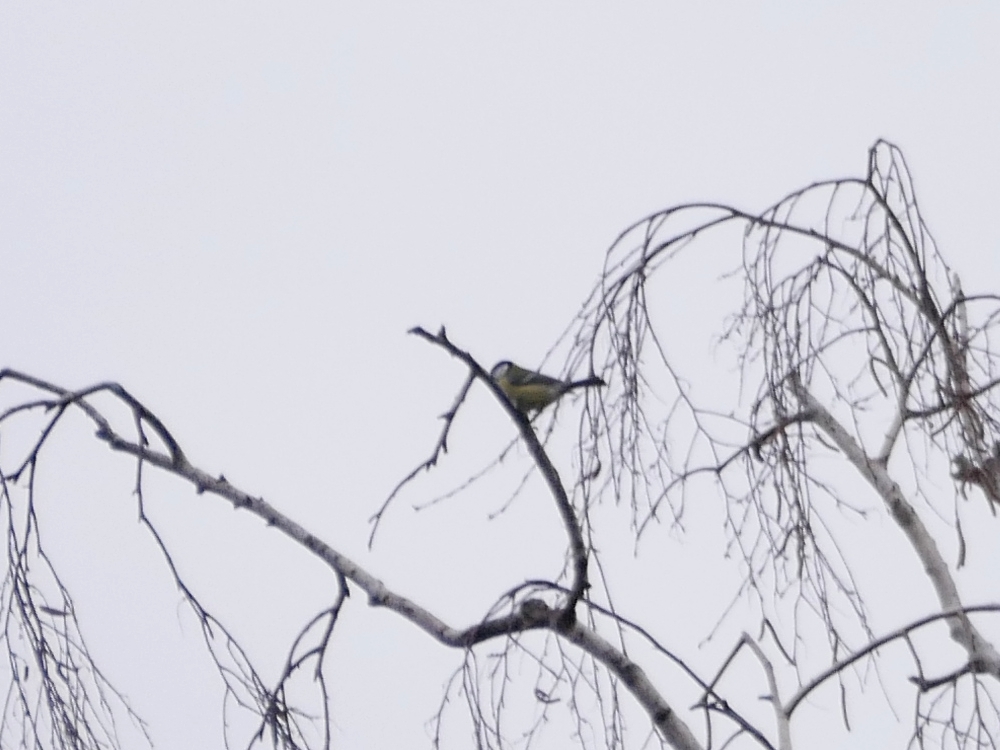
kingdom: Animalia
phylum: Chordata
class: Aves
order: Passeriformes
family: Paridae
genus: Parus
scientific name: Parus major
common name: Great tit
